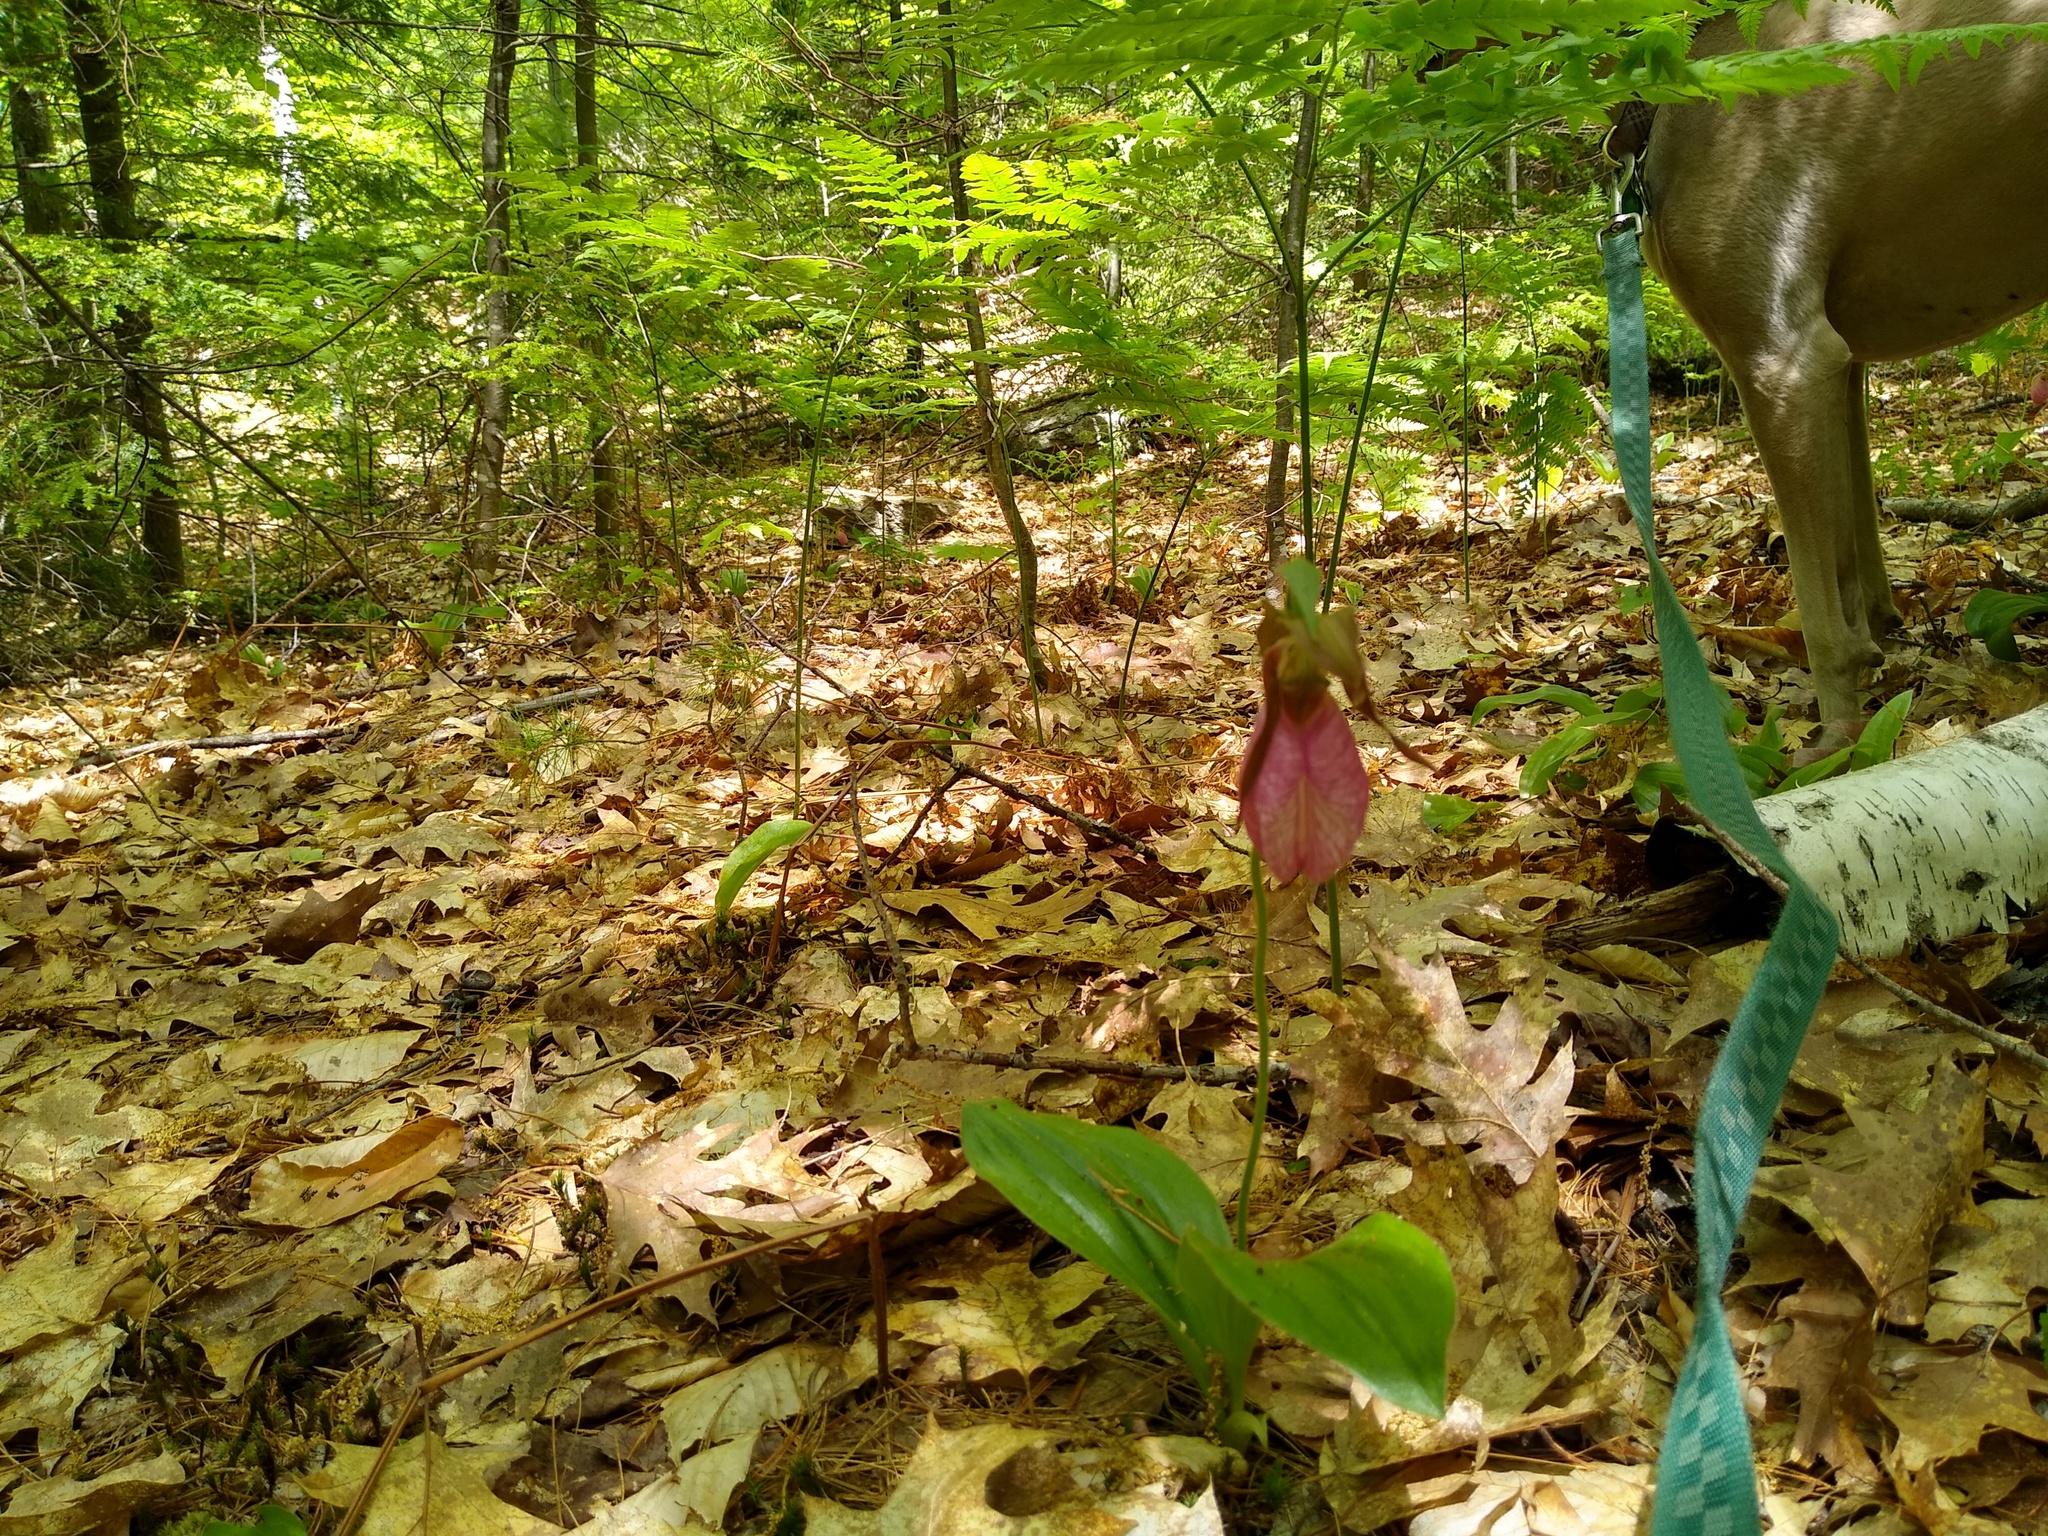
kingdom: Plantae
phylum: Tracheophyta
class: Liliopsida
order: Asparagales
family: Orchidaceae
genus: Cypripedium
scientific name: Cypripedium acaule
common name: Pink lady's-slipper
